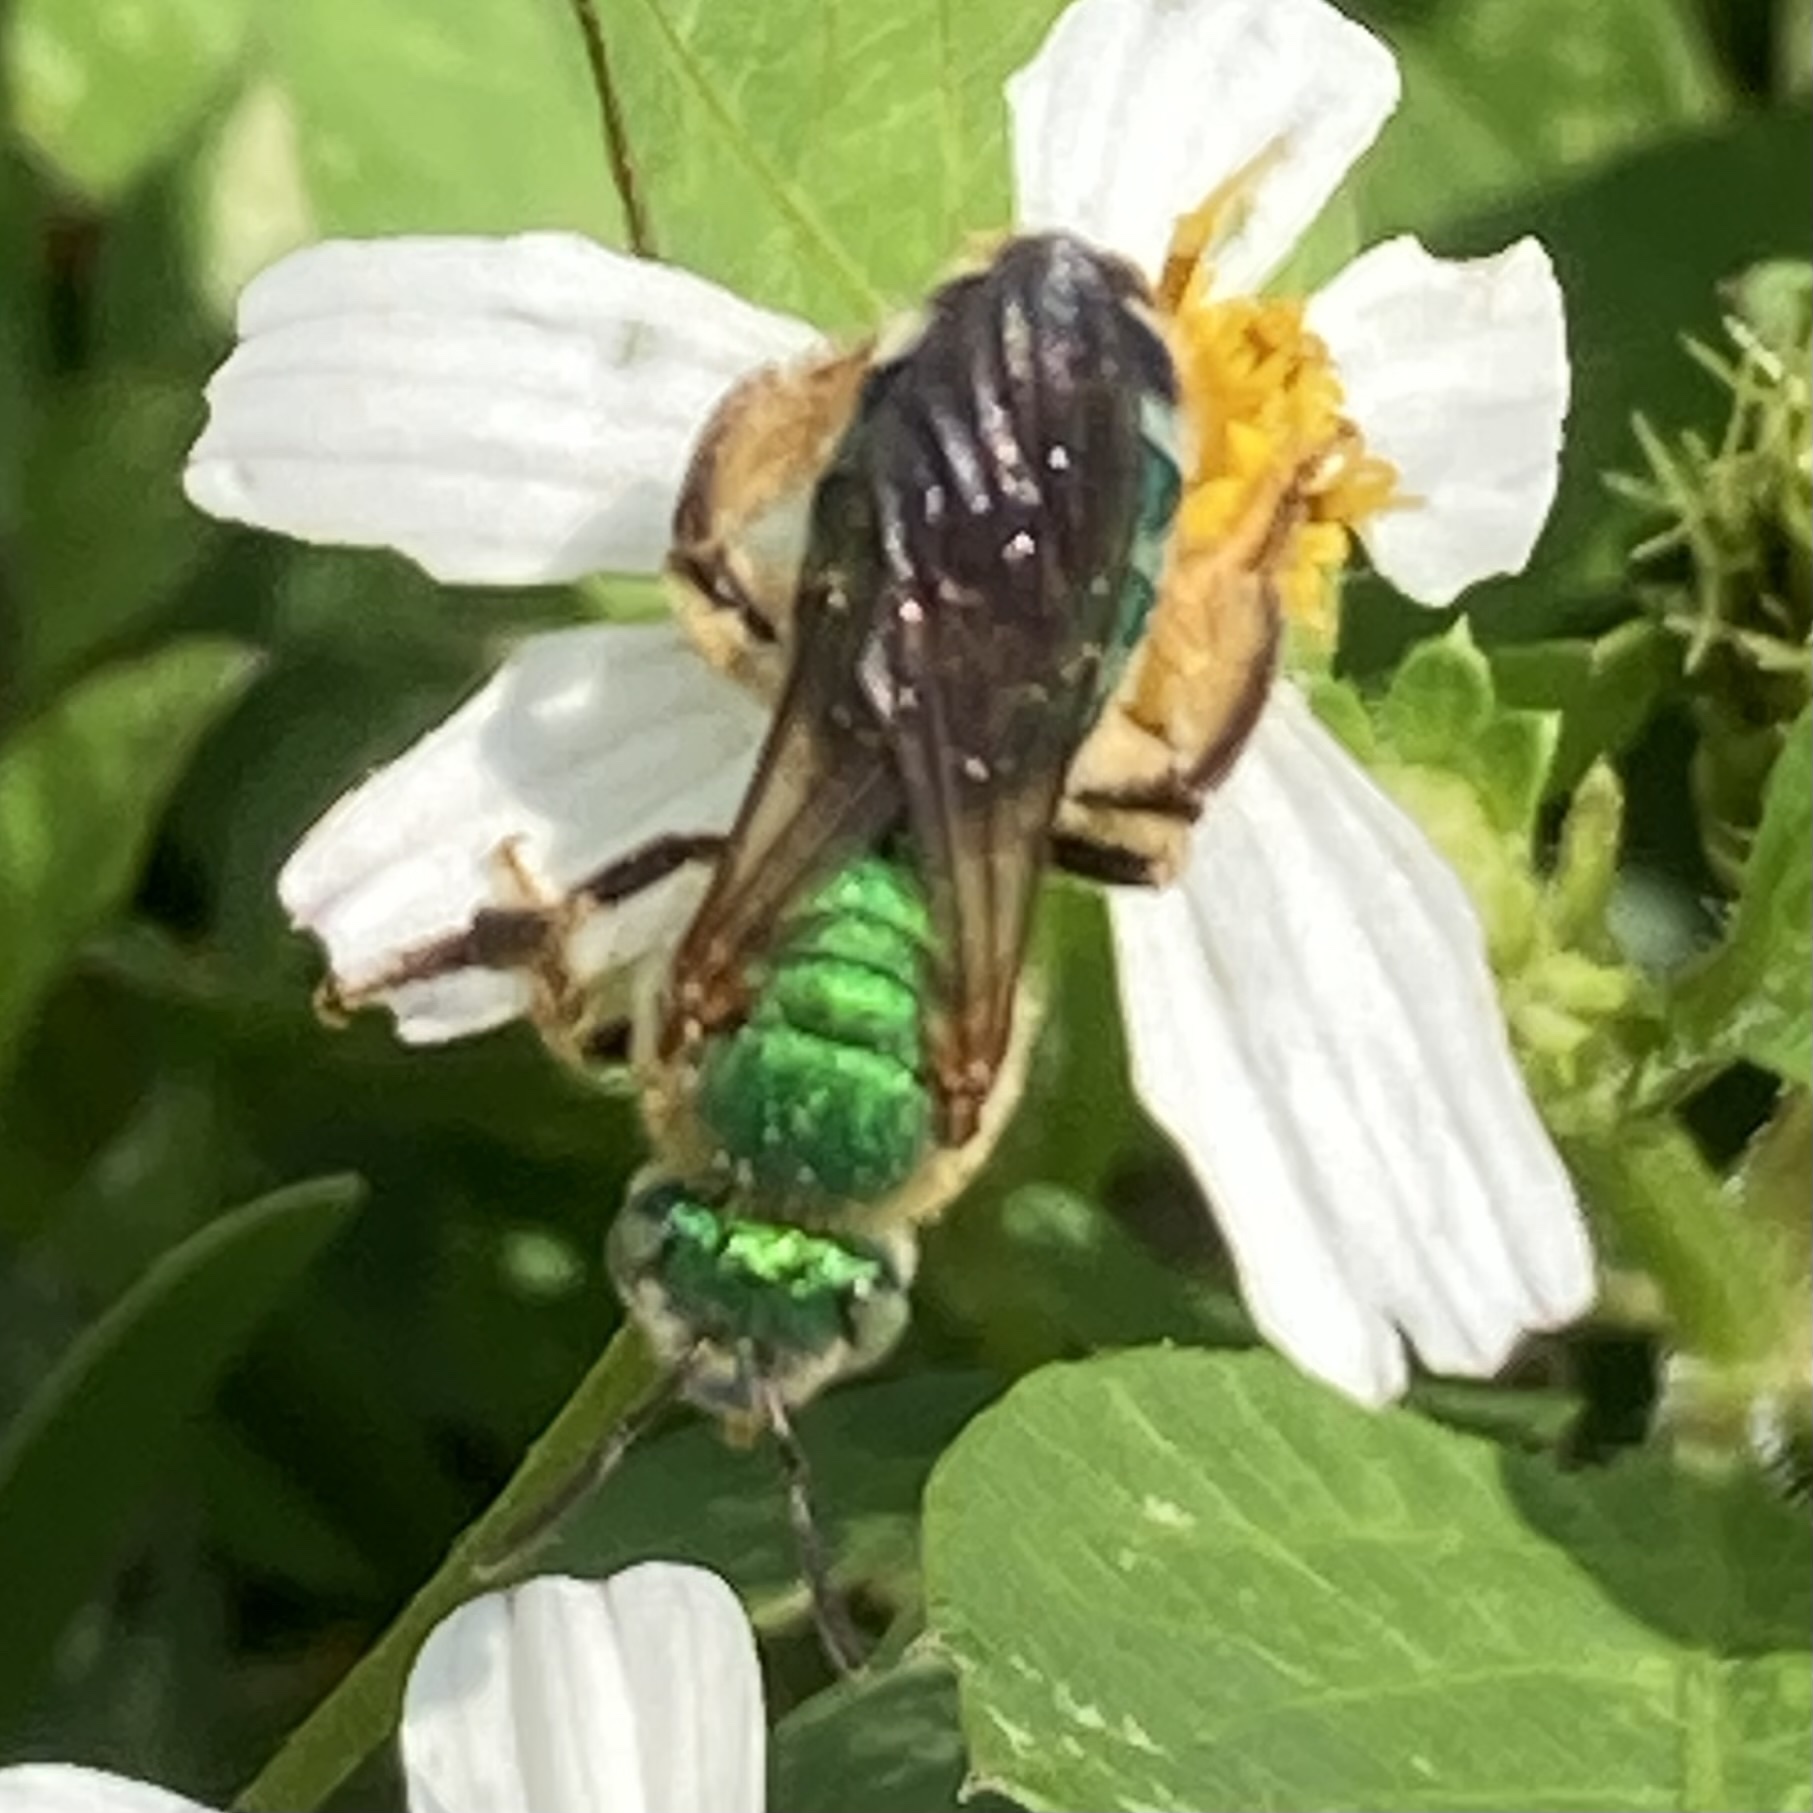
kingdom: Animalia
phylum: Arthropoda
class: Insecta
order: Hymenoptera
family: Halictidae
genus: Agapostemon
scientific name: Agapostemon splendens
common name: Brown-winged striped sweat bee
